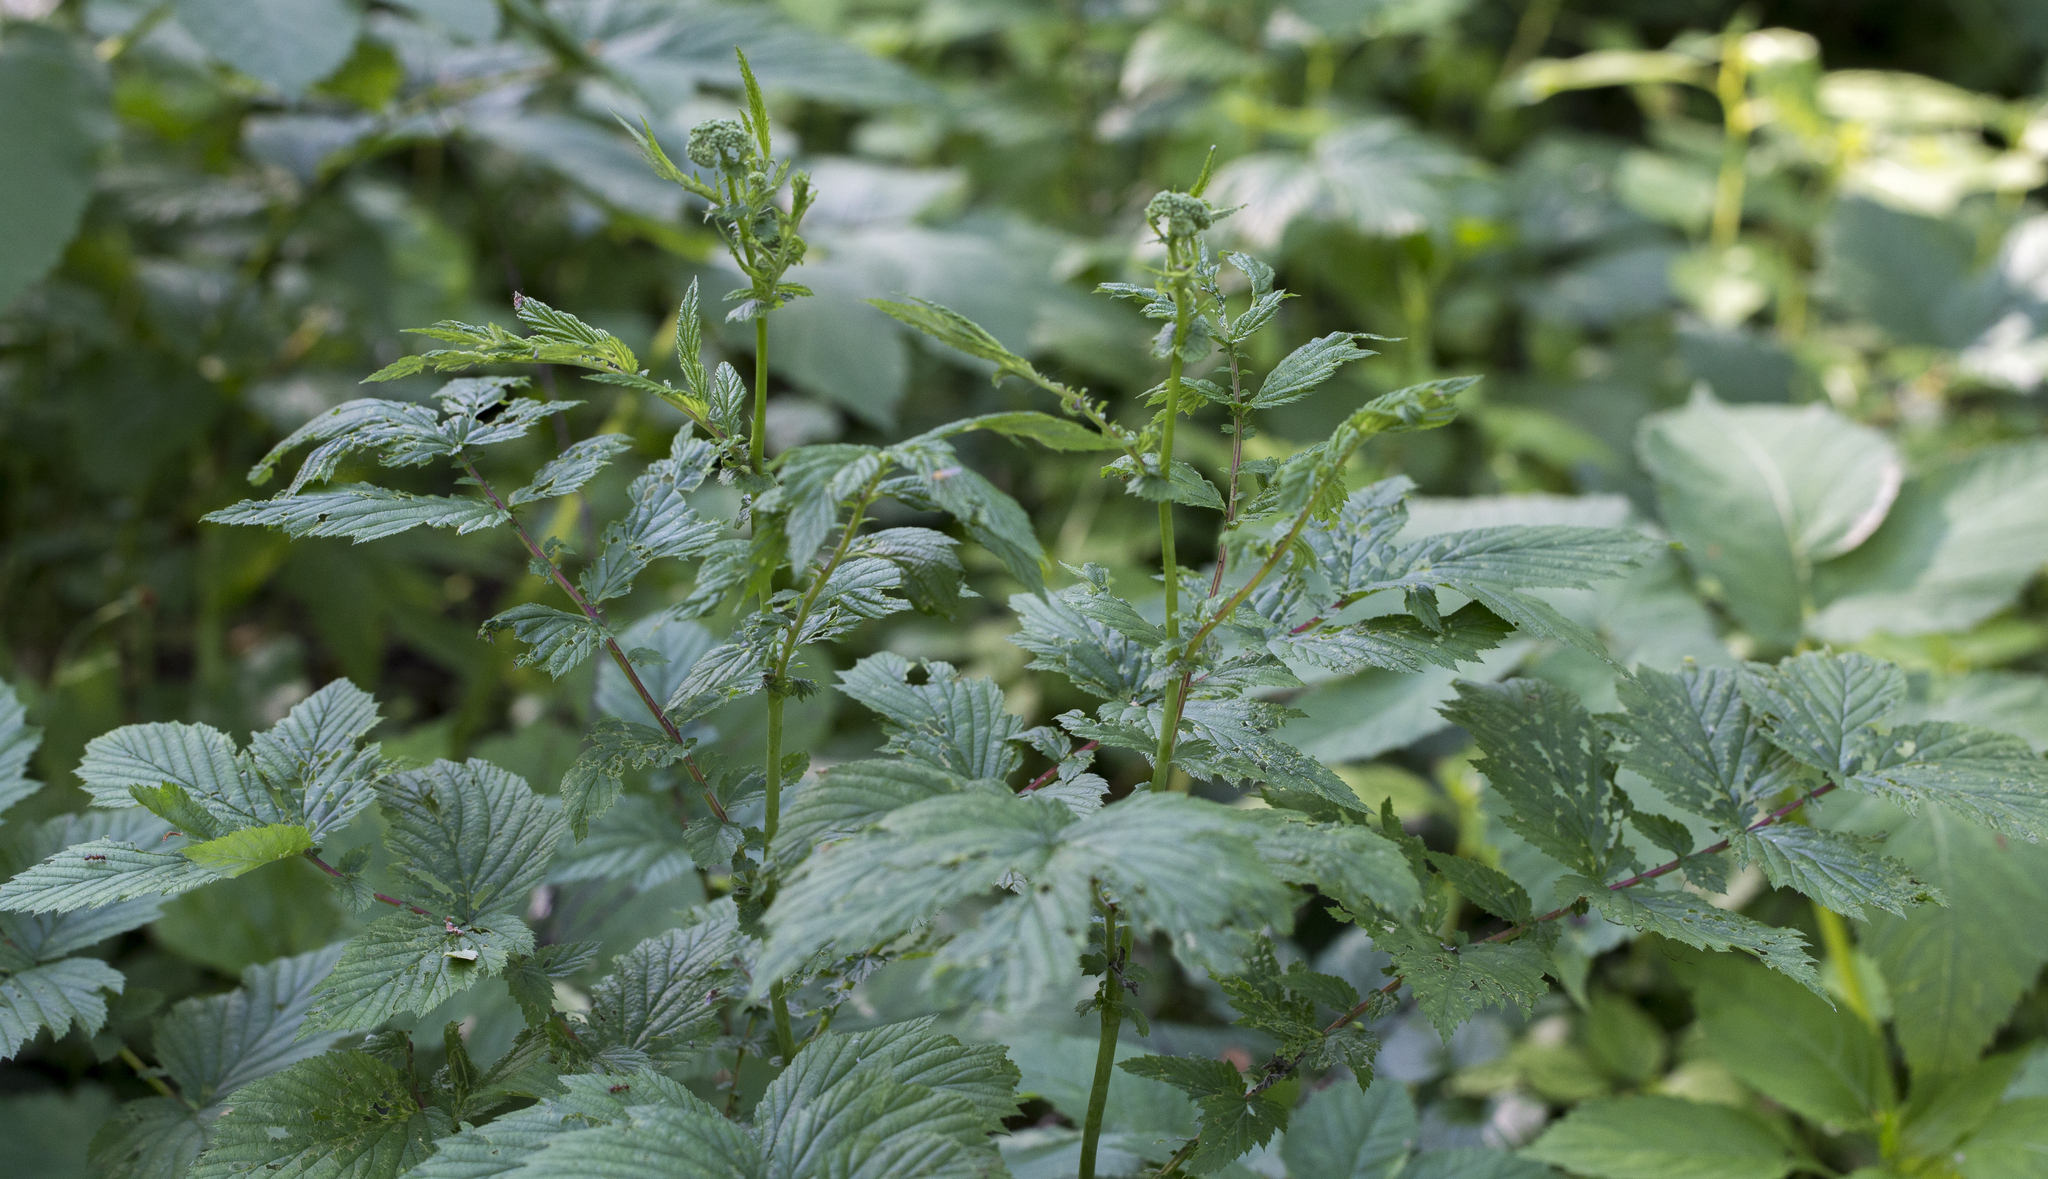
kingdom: Plantae
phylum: Tracheophyta
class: Magnoliopsida
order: Rosales
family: Rosaceae
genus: Filipendula
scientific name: Filipendula ulmaria
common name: Meadowsweet
